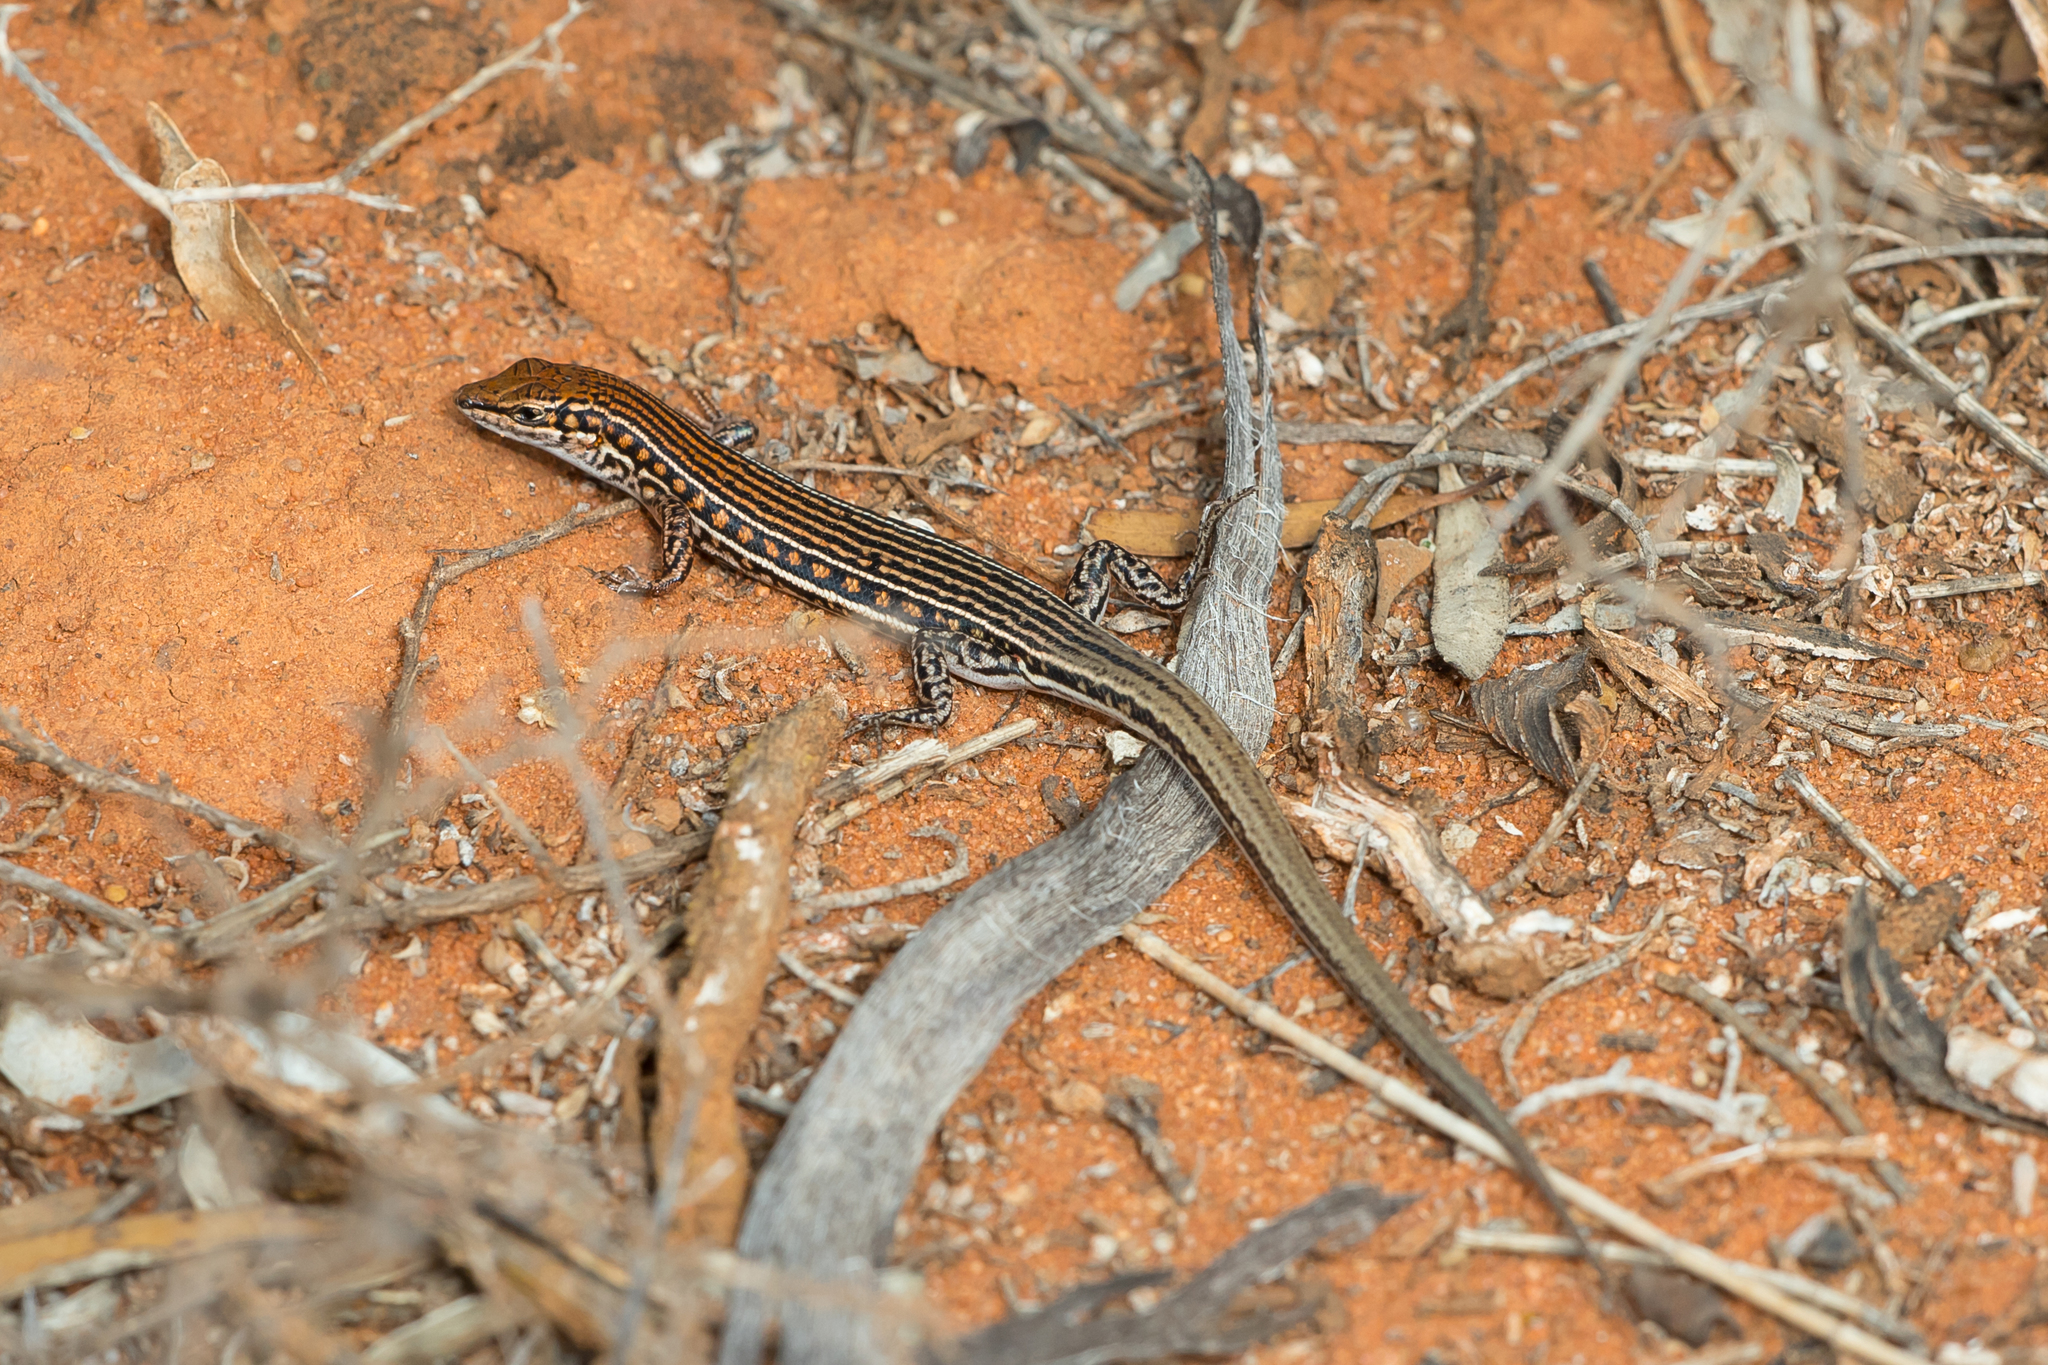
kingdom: Animalia
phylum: Chordata
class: Squamata
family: Scincidae
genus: Ctenotus
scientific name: Ctenotus schomburgkii
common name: Barred wedge-snout ctenotus
